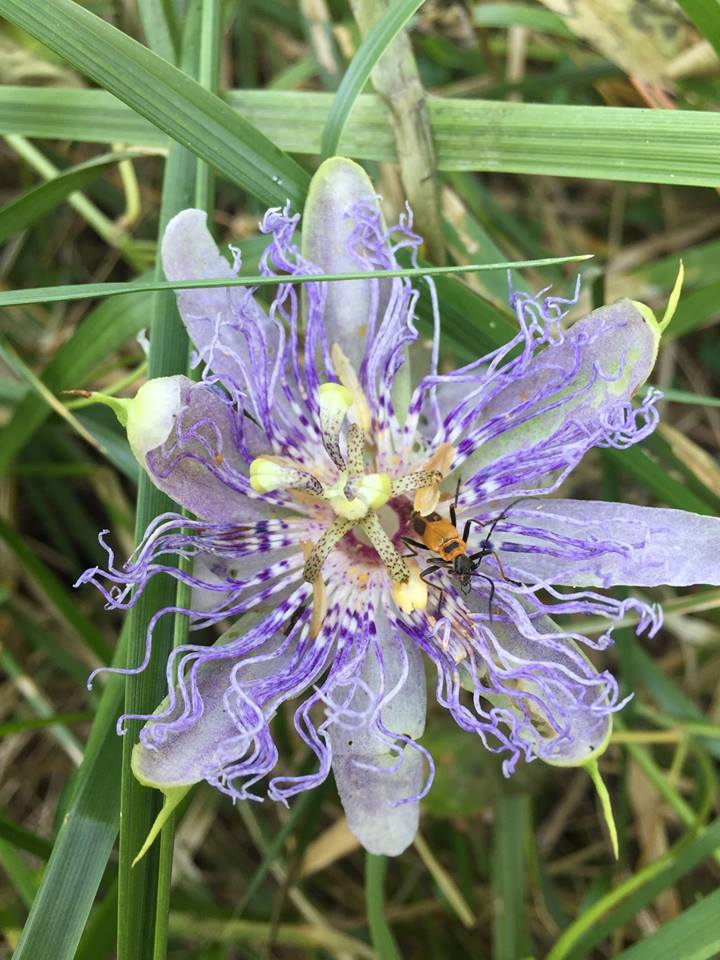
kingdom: Plantae
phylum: Tracheophyta
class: Magnoliopsida
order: Malpighiales
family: Passifloraceae
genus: Passiflora
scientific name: Passiflora incarnata
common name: Apricot-vine
